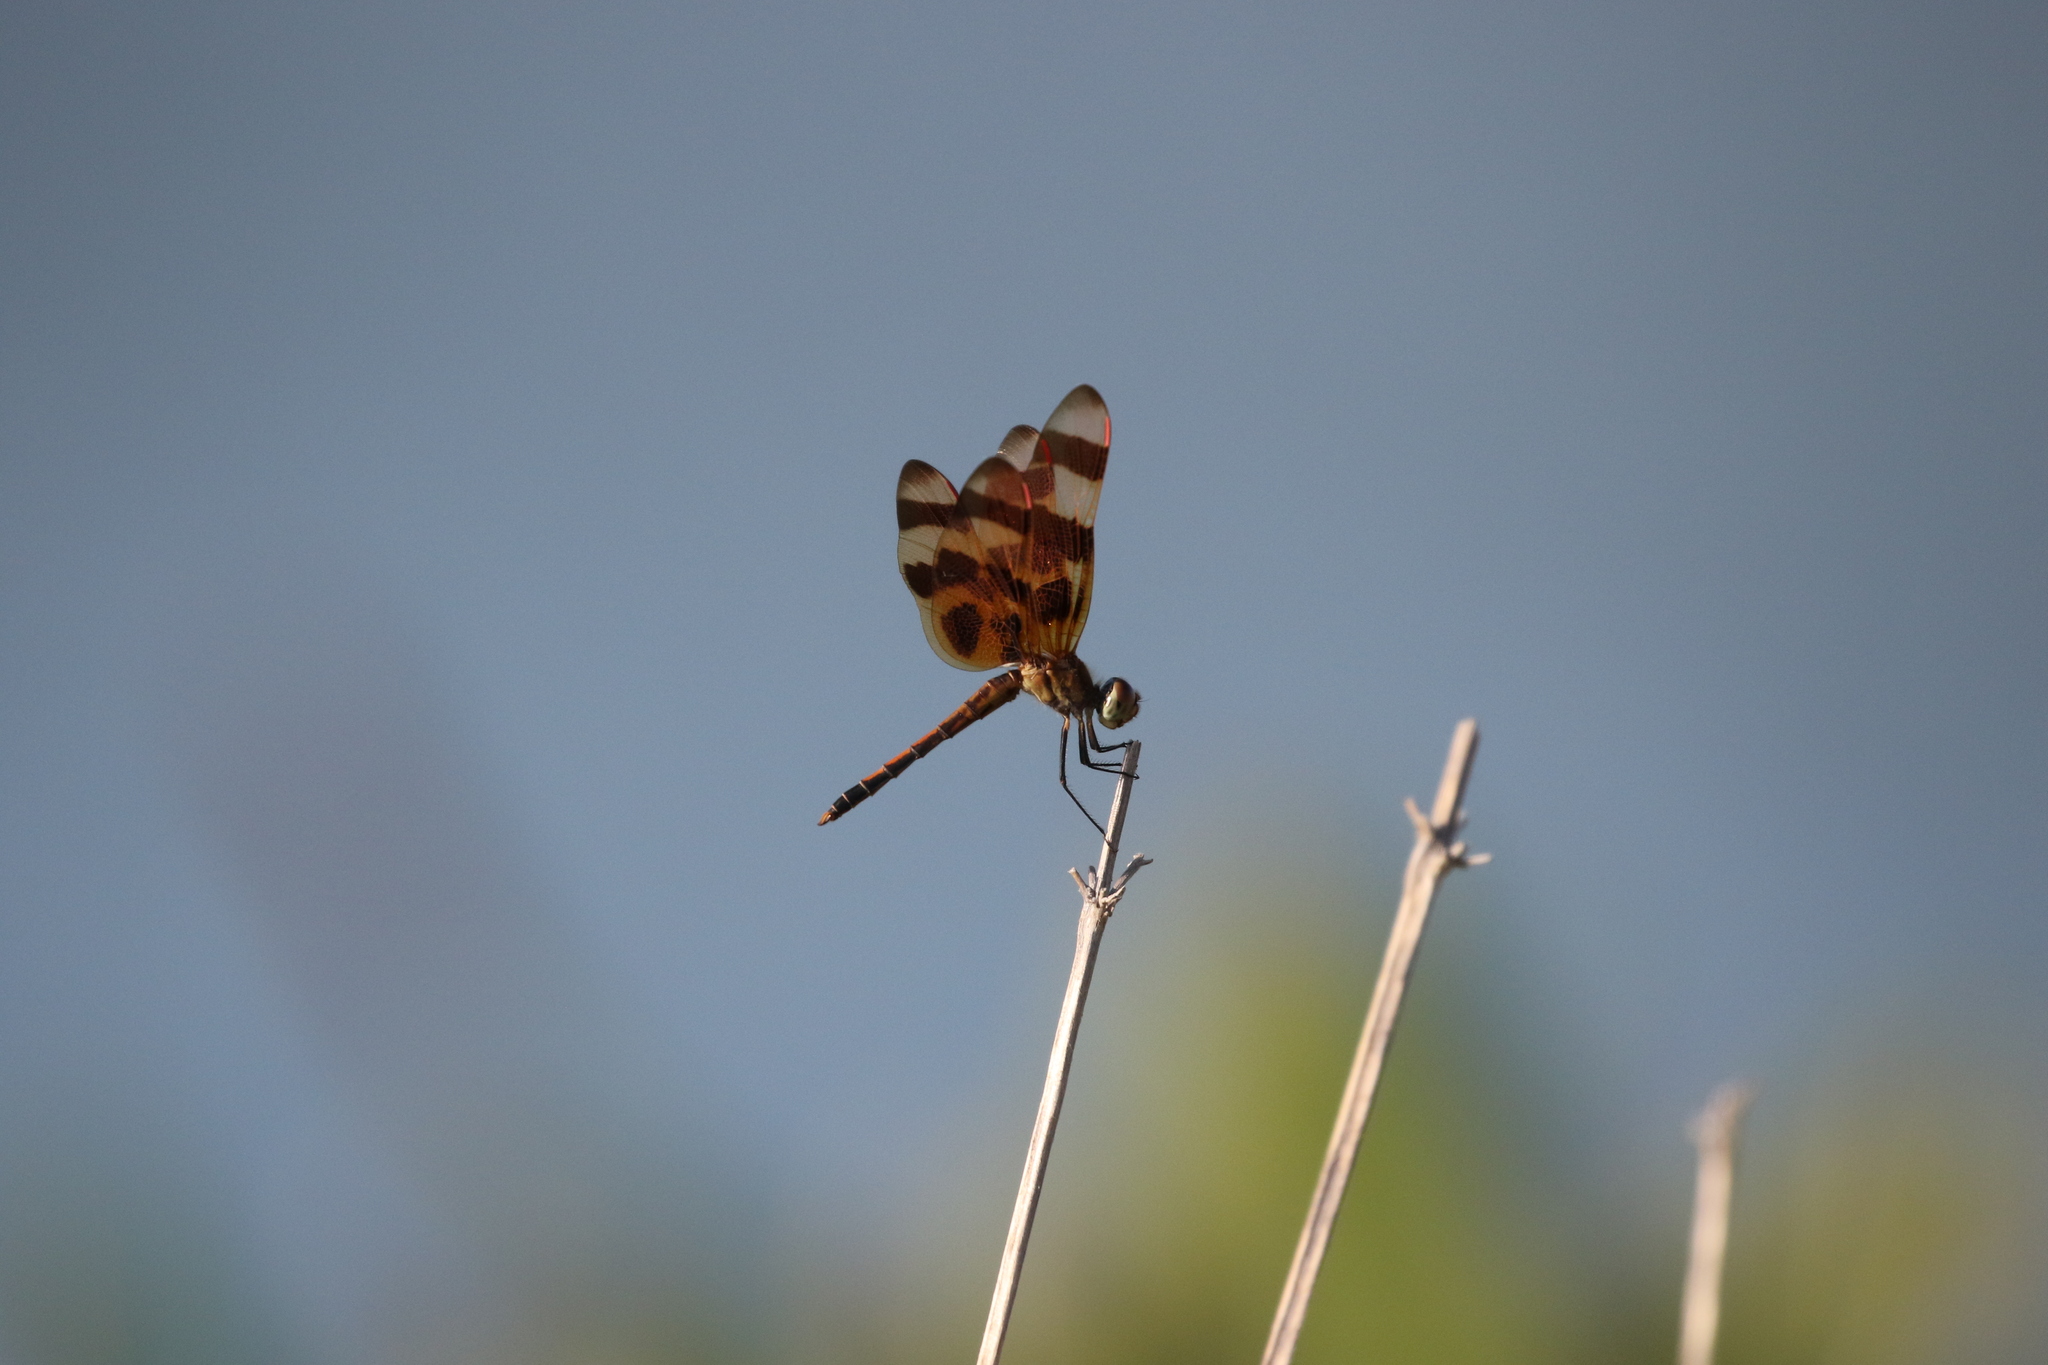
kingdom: Animalia
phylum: Arthropoda
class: Insecta
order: Odonata
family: Libellulidae
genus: Celithemis
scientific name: Celithemis eponina
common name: Halloween pennant
